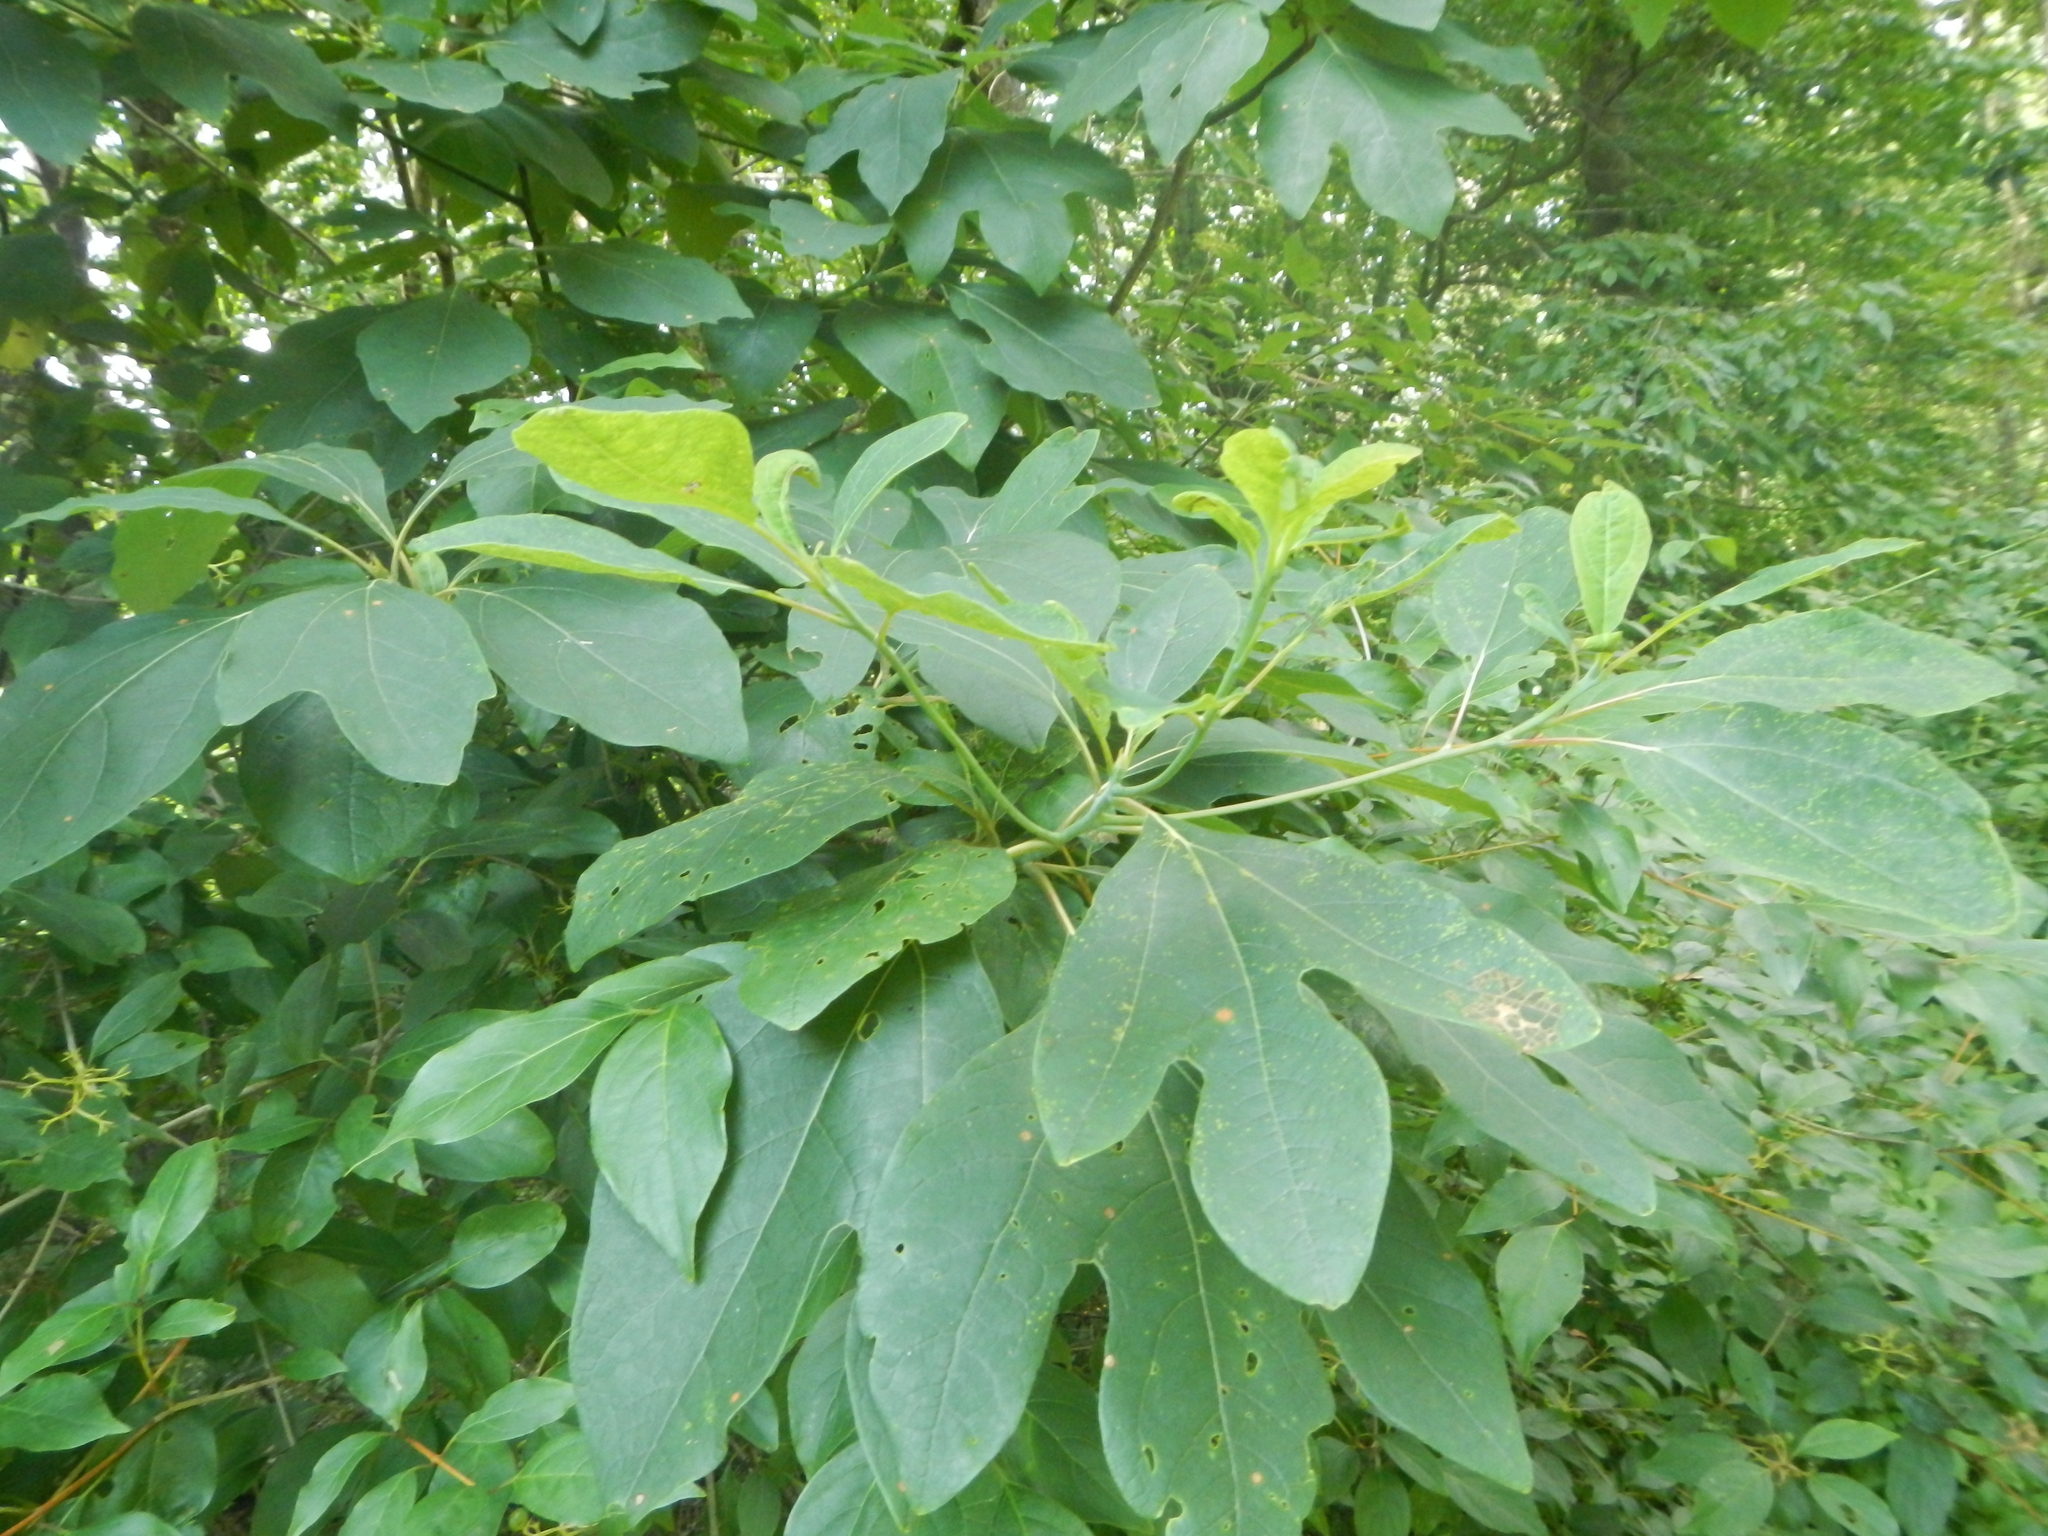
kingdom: Plantae
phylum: Tracheophyta
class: Magnoliopsida
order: Laurales
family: Lauraceae
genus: Sassafras
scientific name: Sassafras albidum
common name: Sassafras
